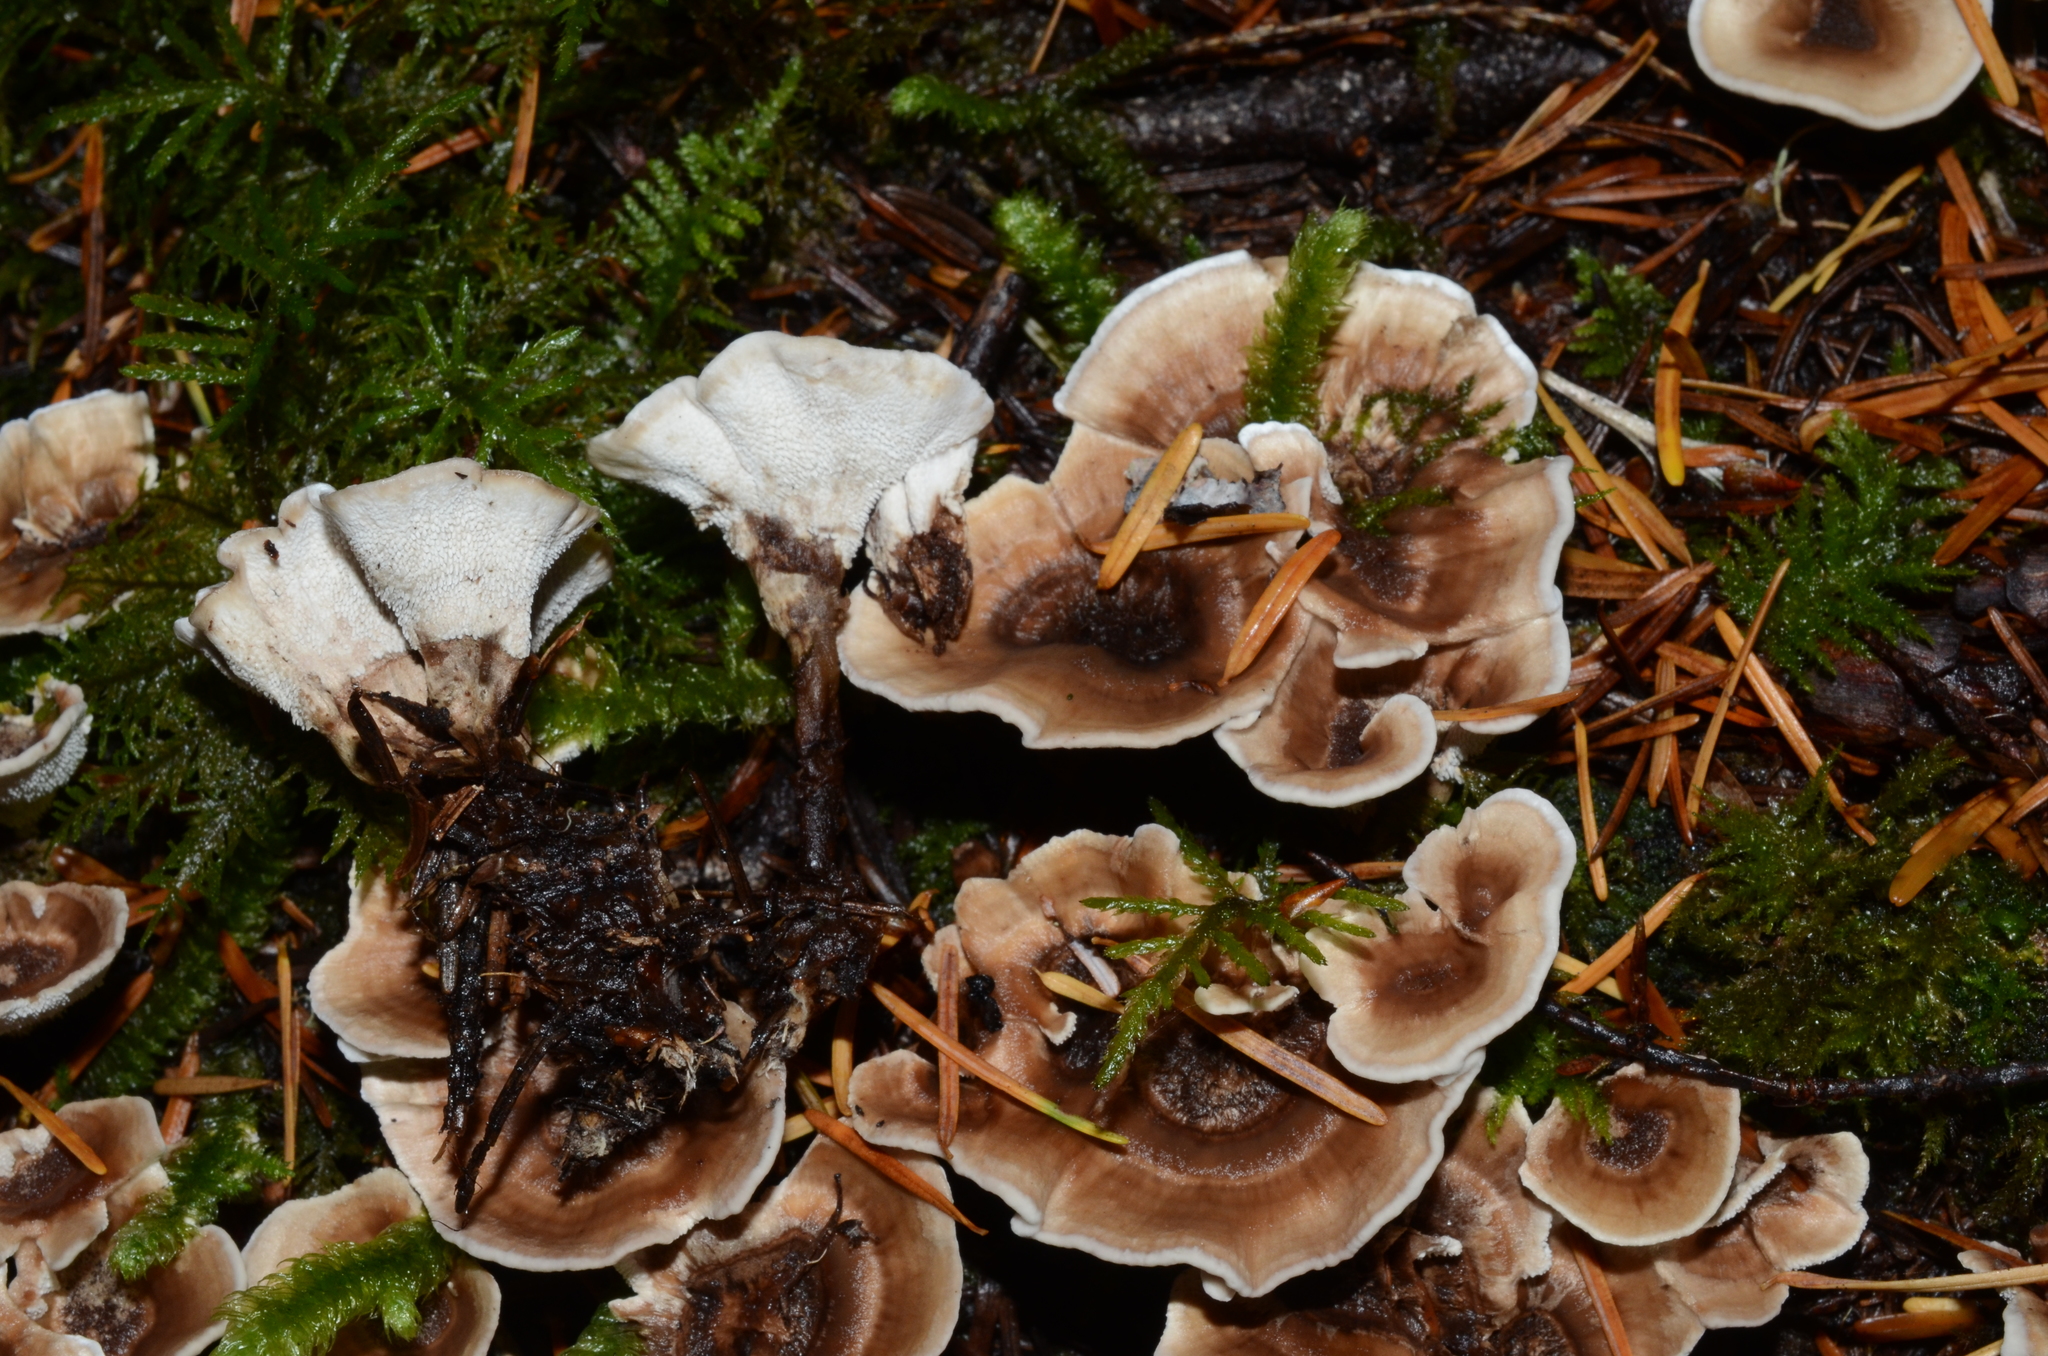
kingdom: Fungi
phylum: Basidiomycota
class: Agaricomycetes
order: Thelephorales
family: Thelephoraceae
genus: Phellodon
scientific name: Phellodon tomentosus
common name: Woolly tooth
